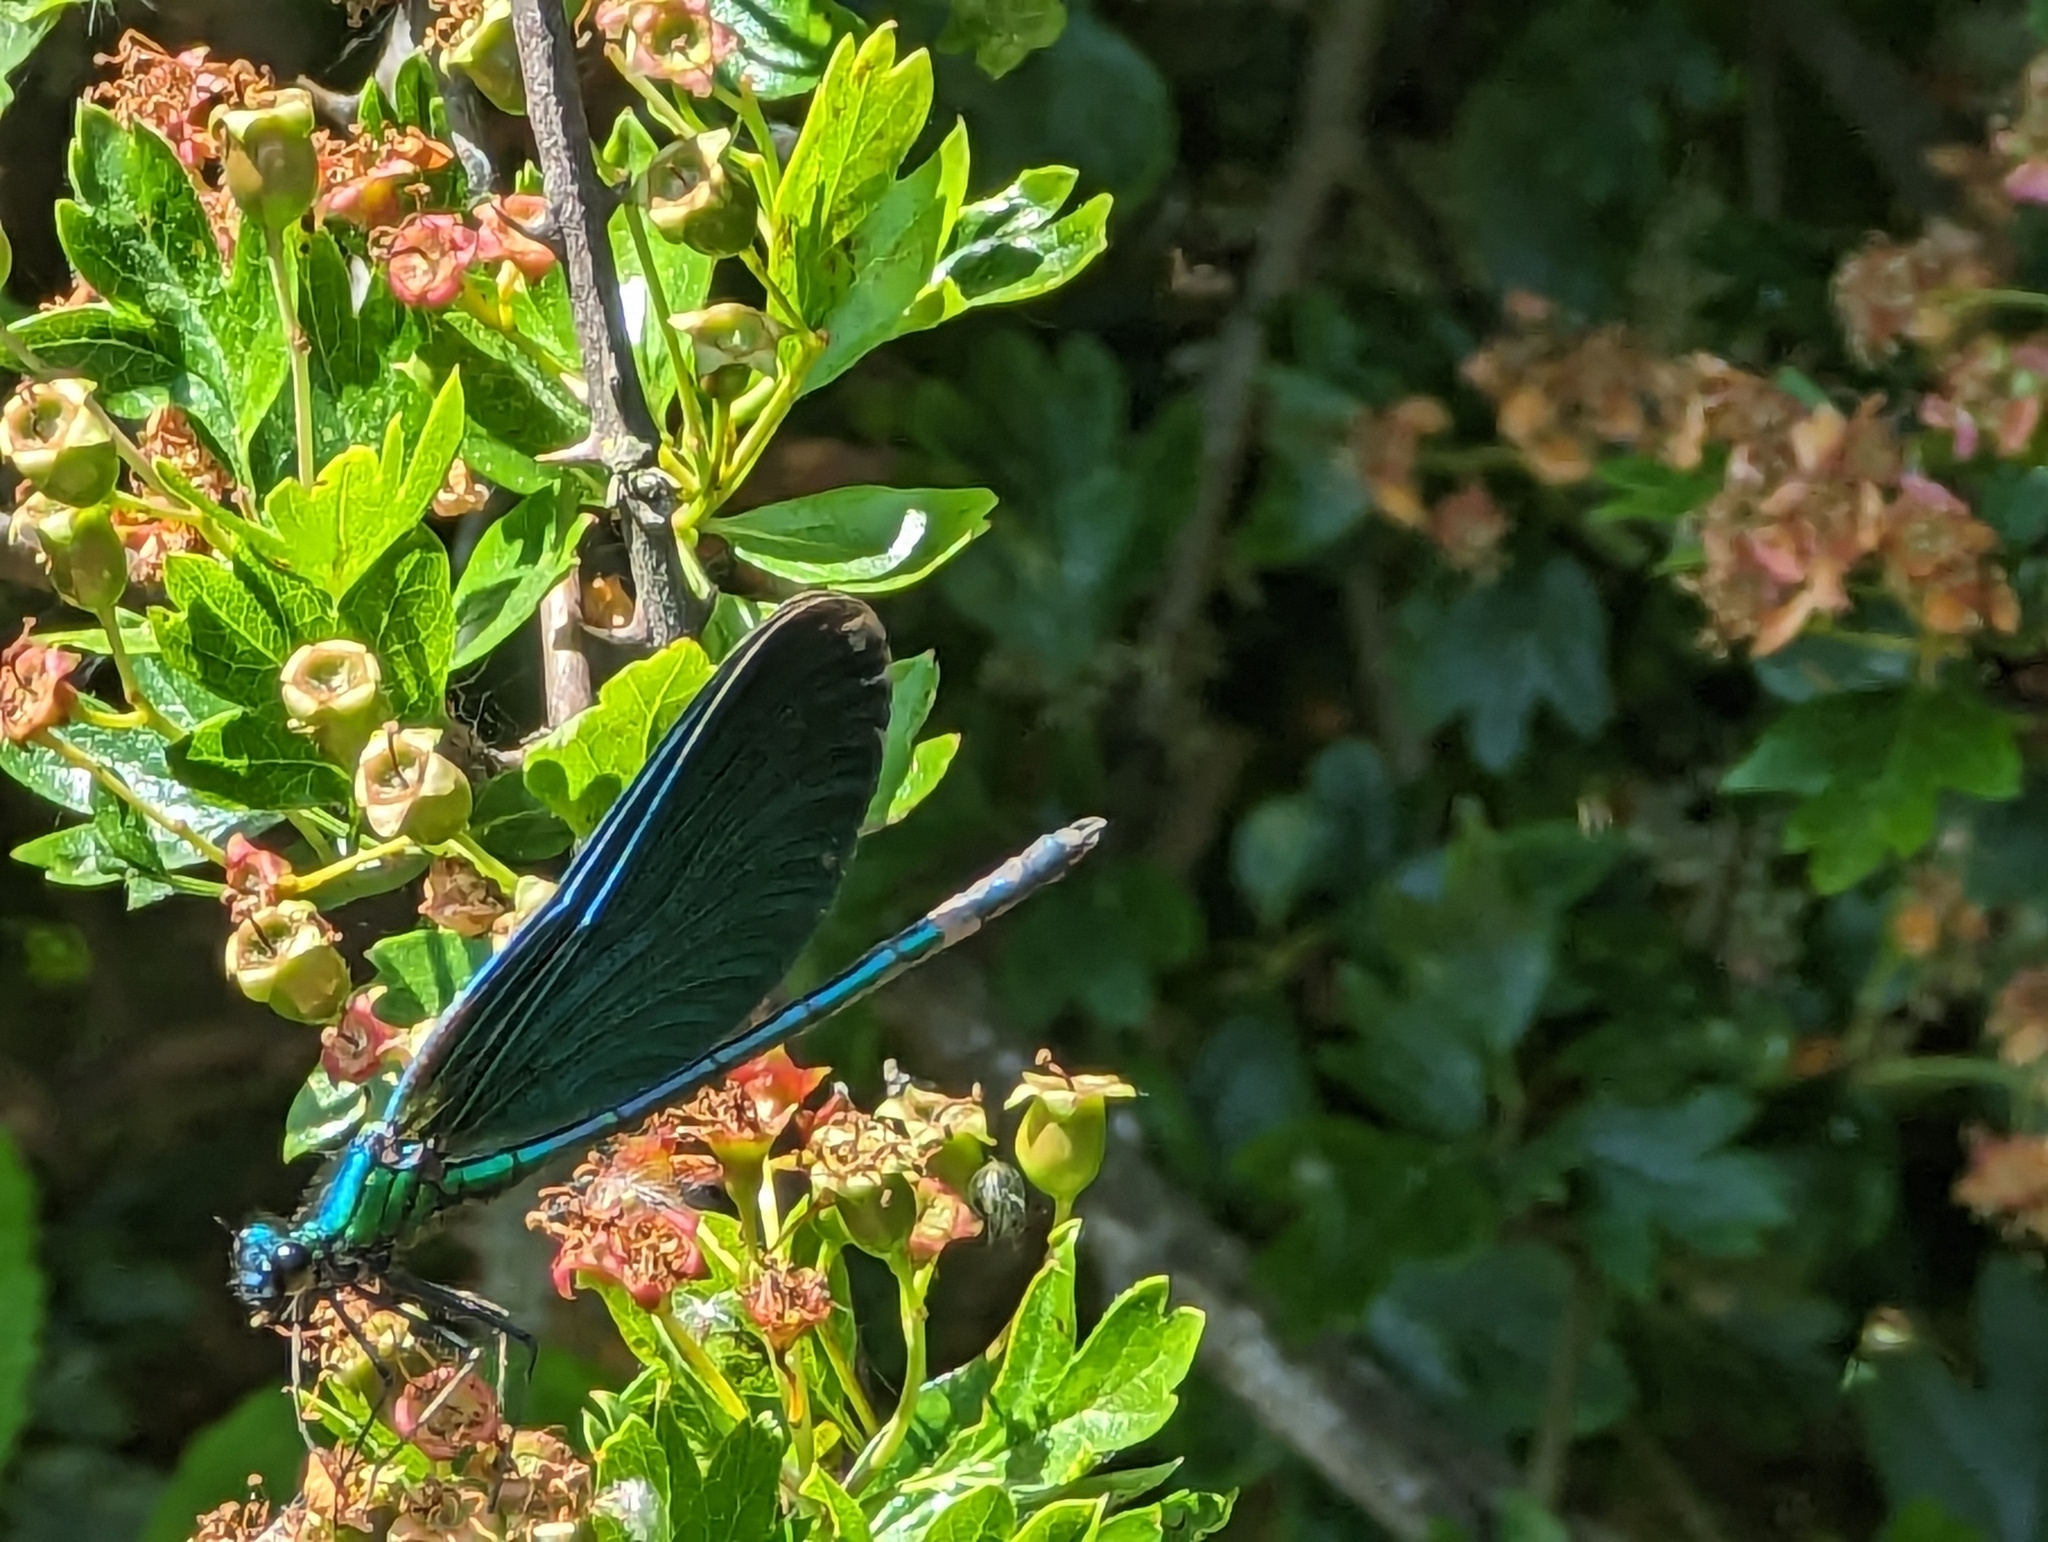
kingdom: Animalia
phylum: Arthropoda
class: Insecta
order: Odonata
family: Calopterygidae
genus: Calopteryx
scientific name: Calopteryx virgo
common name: Beautiful demoiselle
